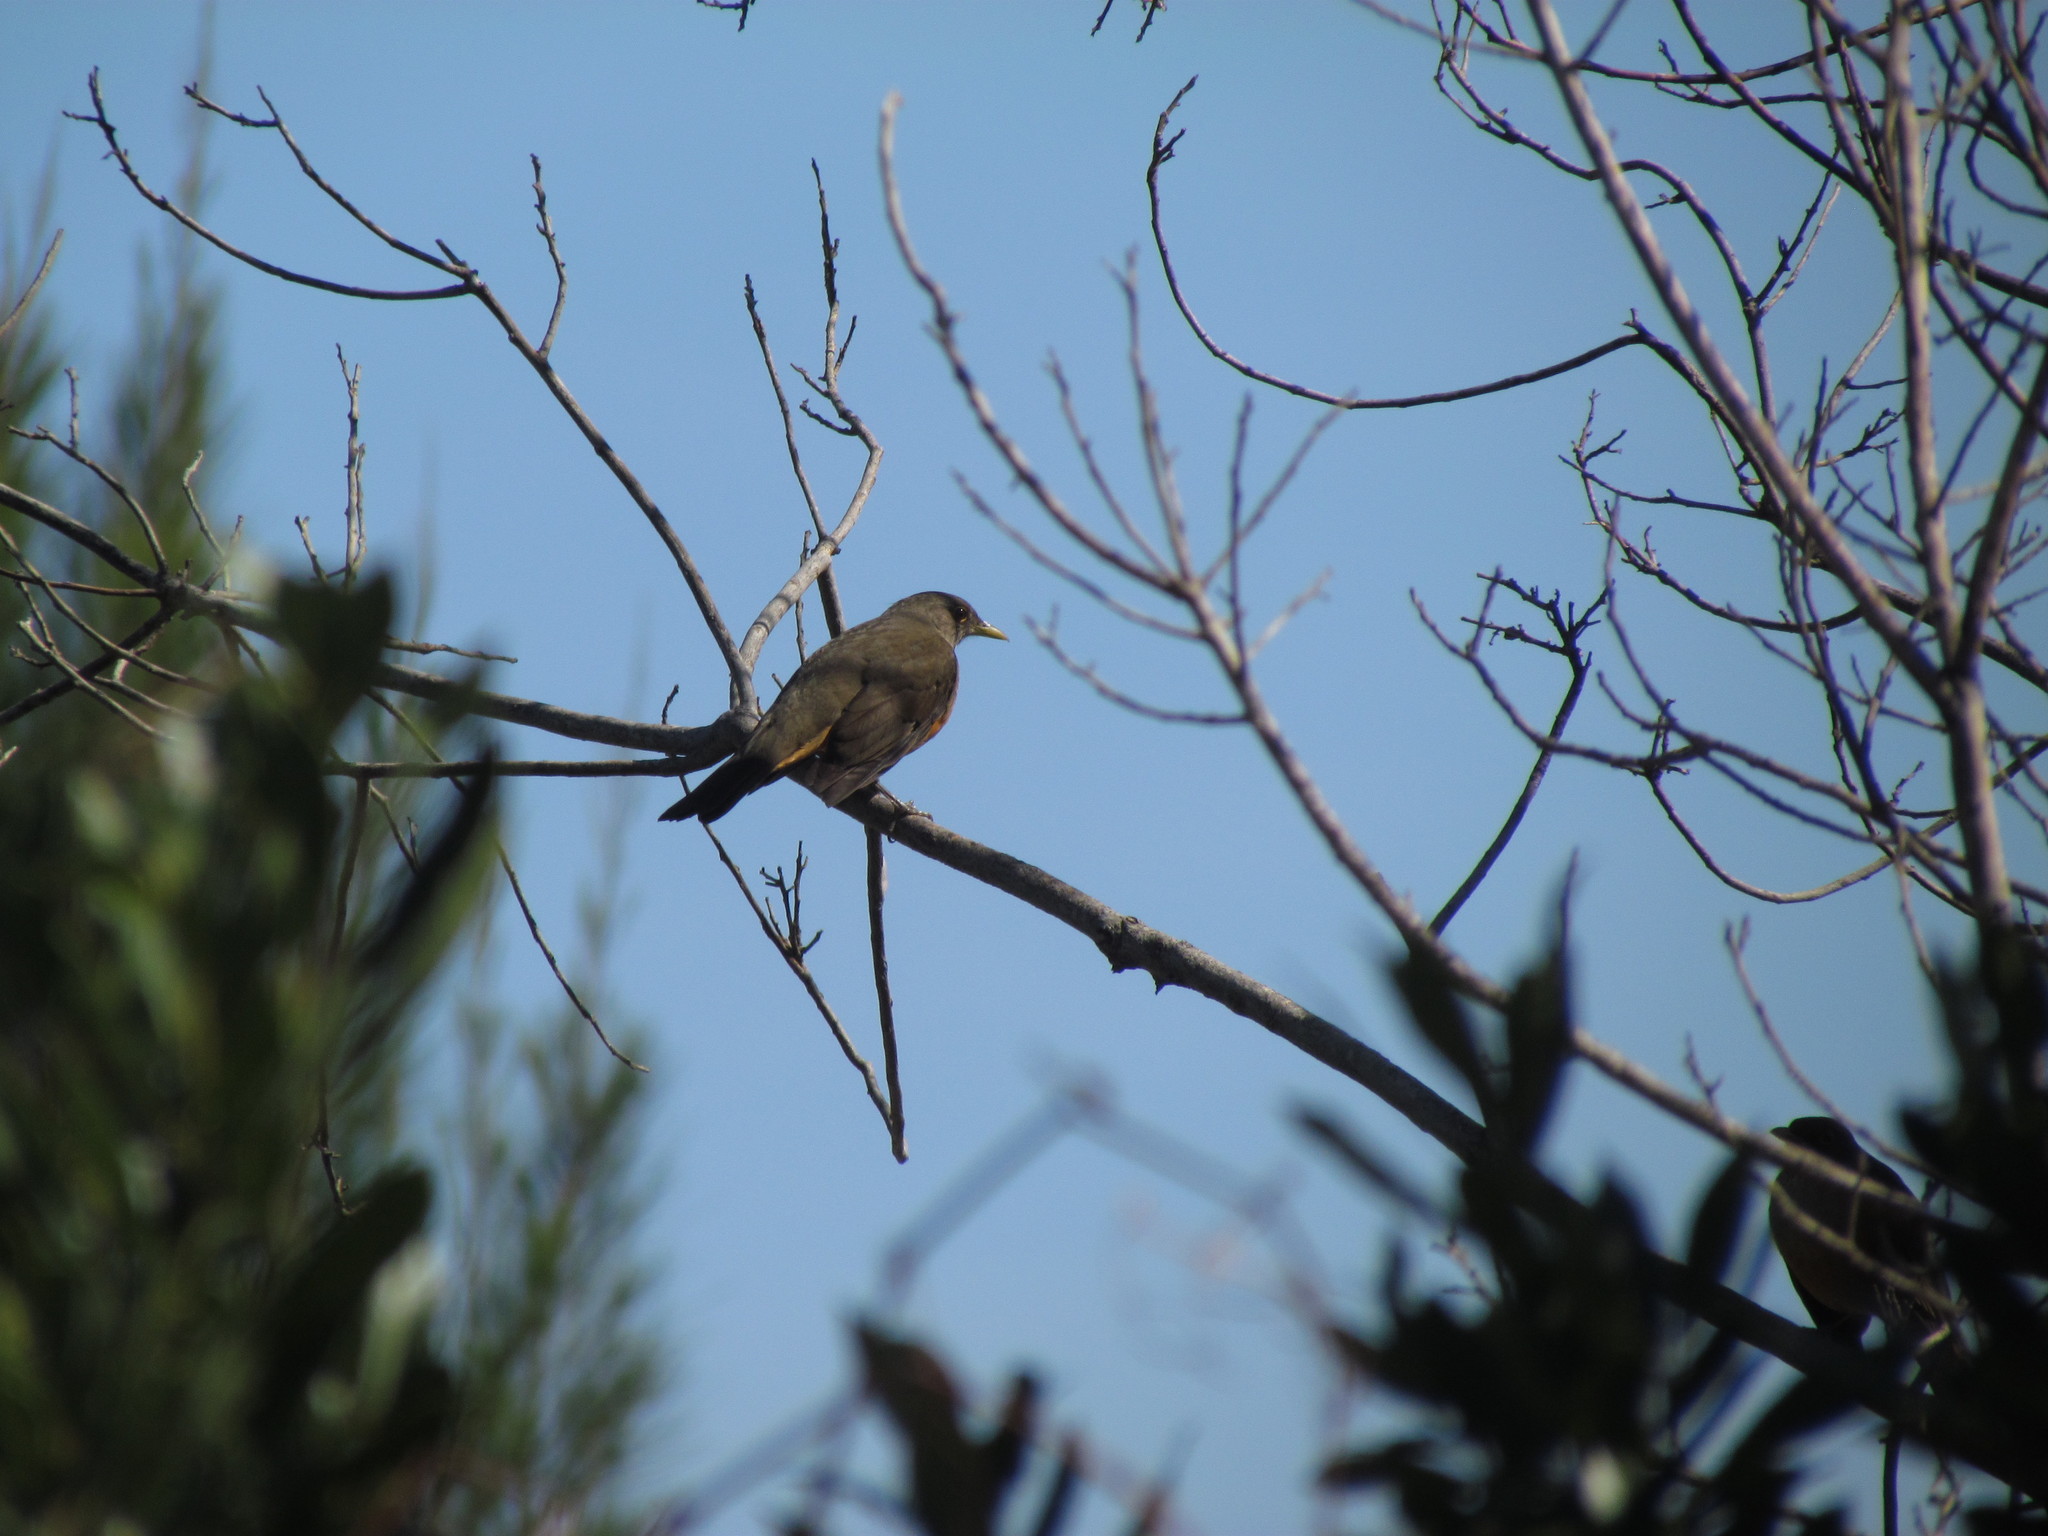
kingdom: Animalia
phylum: Chordata
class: Aves
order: Passeriformes
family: Turdidae
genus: Turdus
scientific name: Turdus rufiventris
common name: Rufous-bellied thrush
